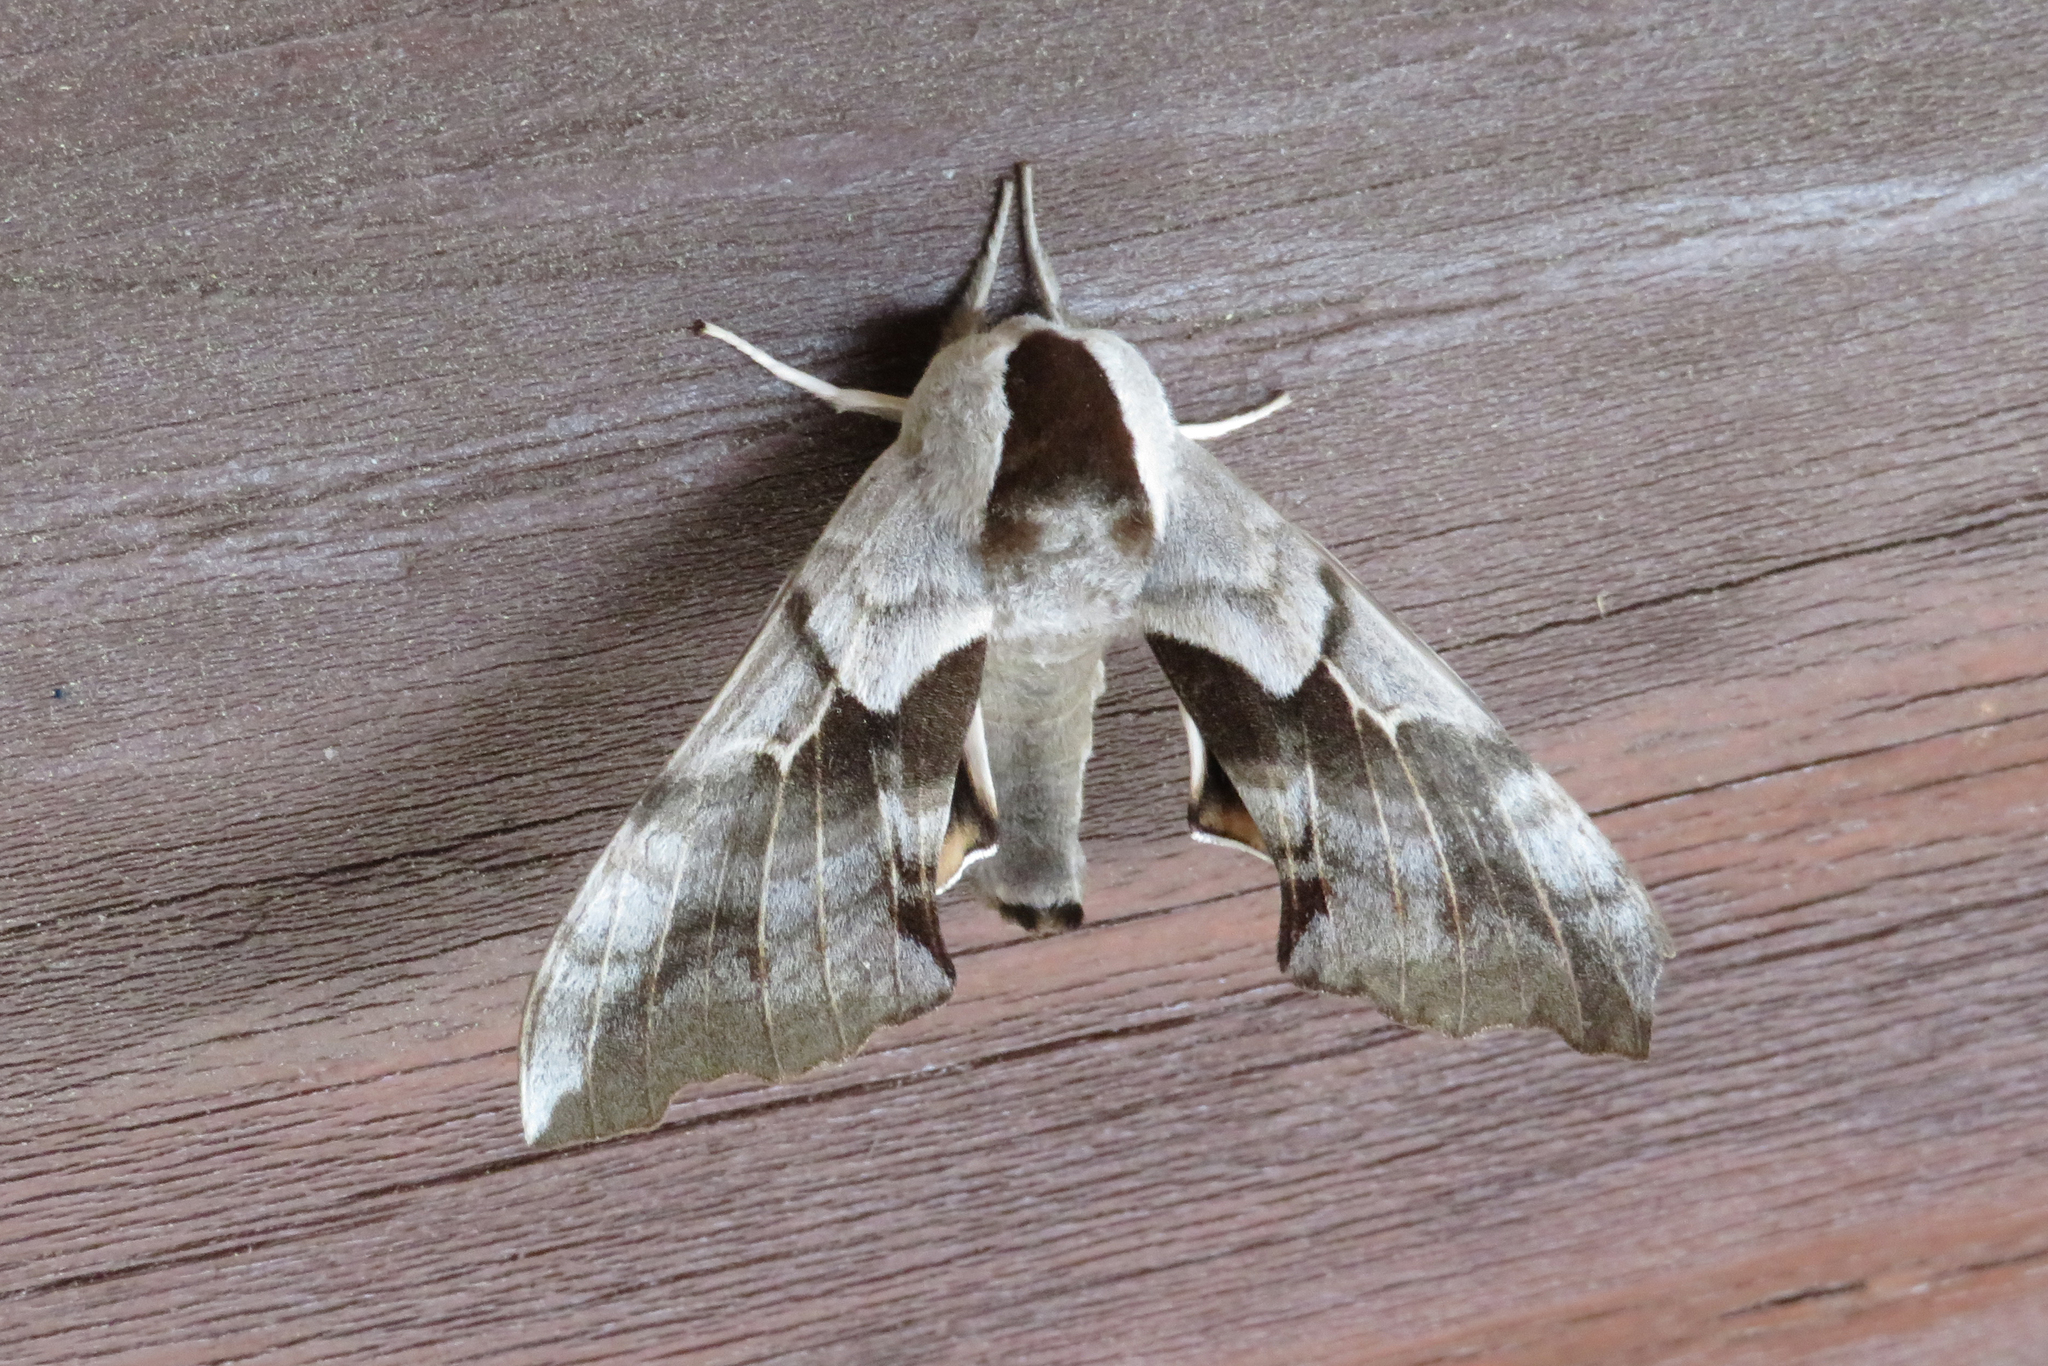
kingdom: Animalia
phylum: Arthropoda
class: Insecta
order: Lepidoptera
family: Sphingidae
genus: Smerinthus
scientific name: Smerinthus cerisyi
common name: Cerisy's sphinx moth
